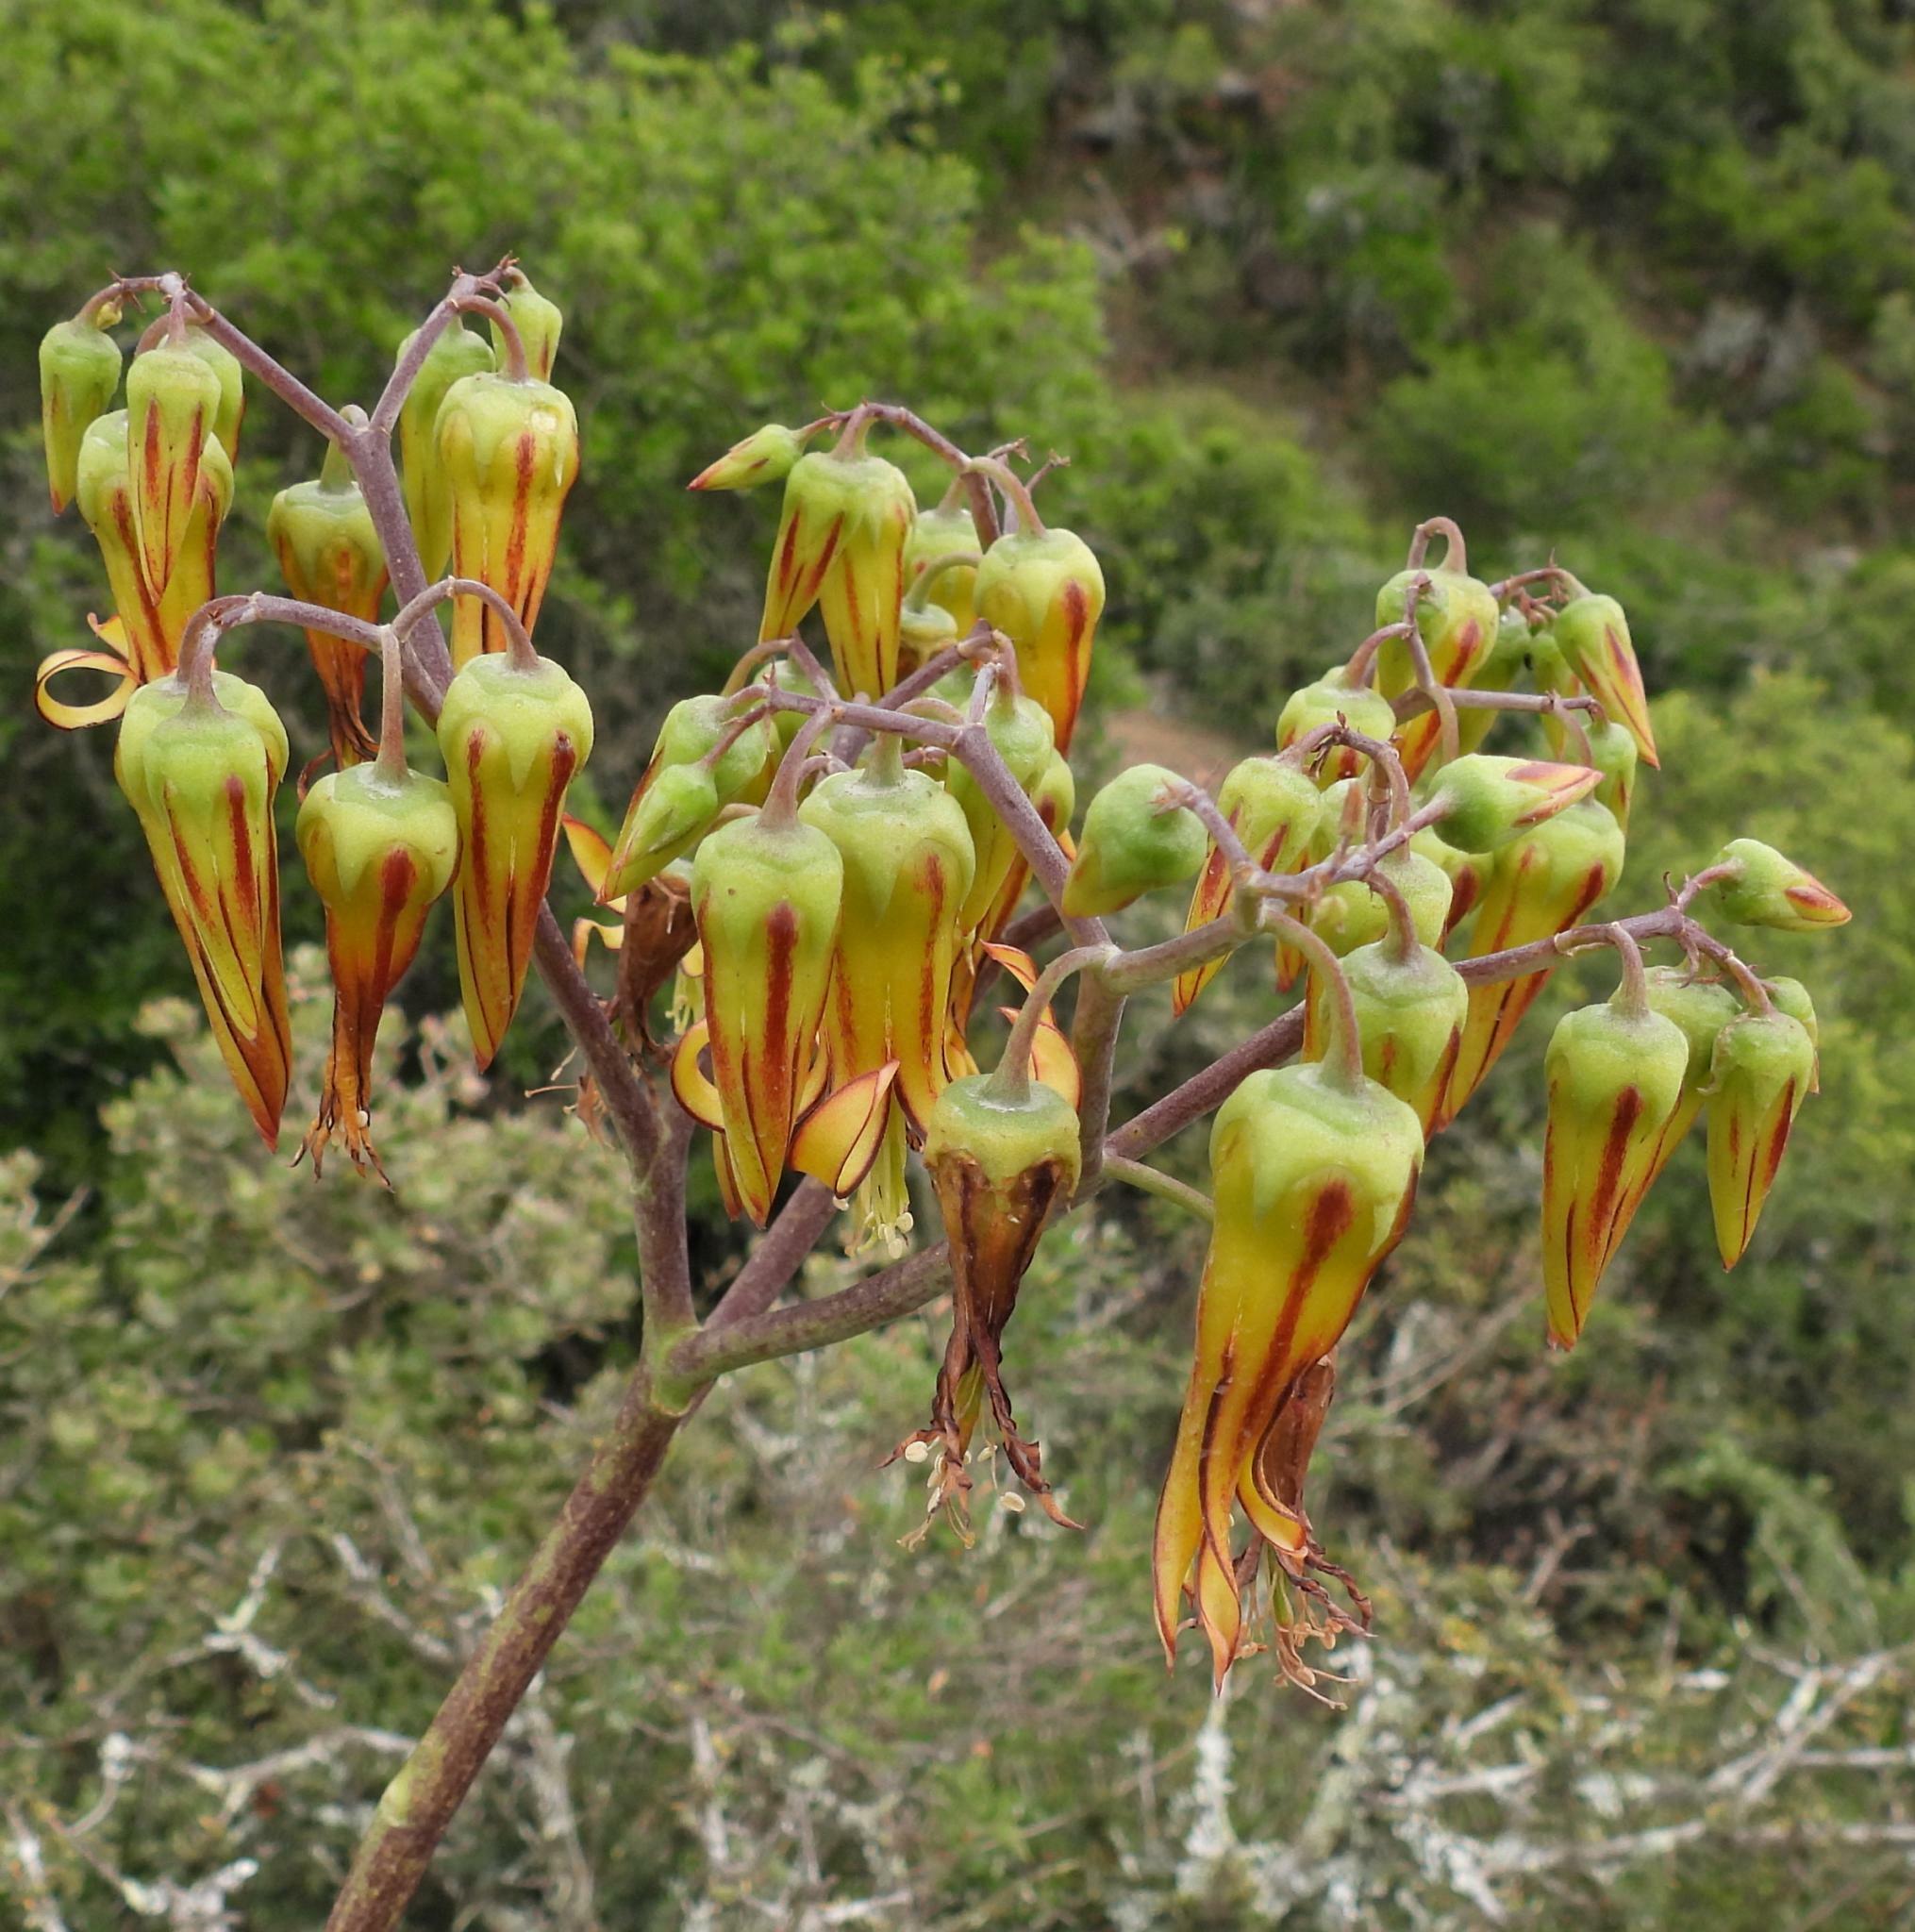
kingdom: Plantae
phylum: Tracheophyta
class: Magnoliopsida
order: Saxifragales
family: Crassulaceae
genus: Cotyledon
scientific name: Cotyledon velutina
